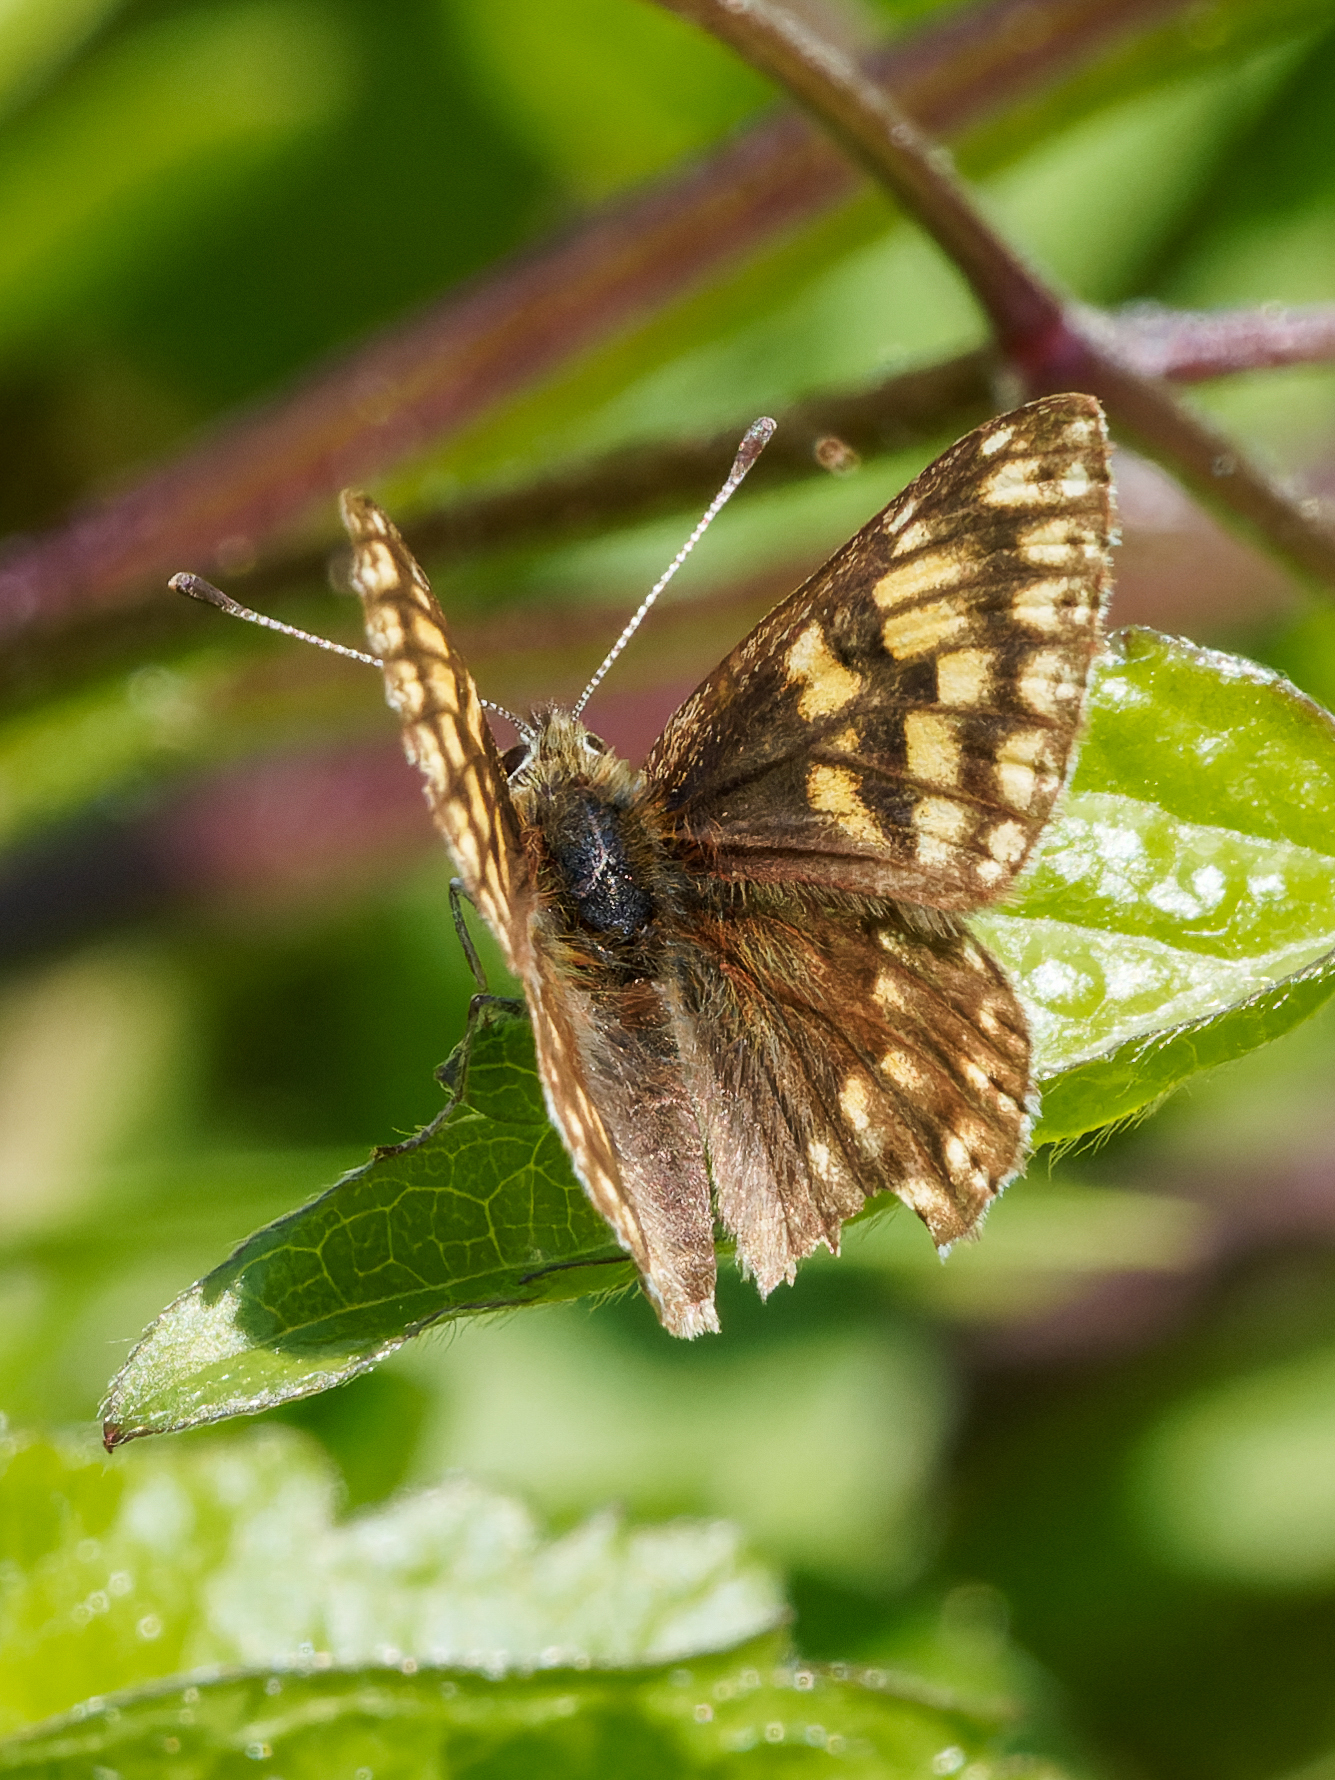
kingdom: Animalia
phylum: Arthropoda
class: Insecta
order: Lepidoptera
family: Riodinidae
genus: Hamearis
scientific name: Hamearis lucina
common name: Duke of burgundy fritillary
